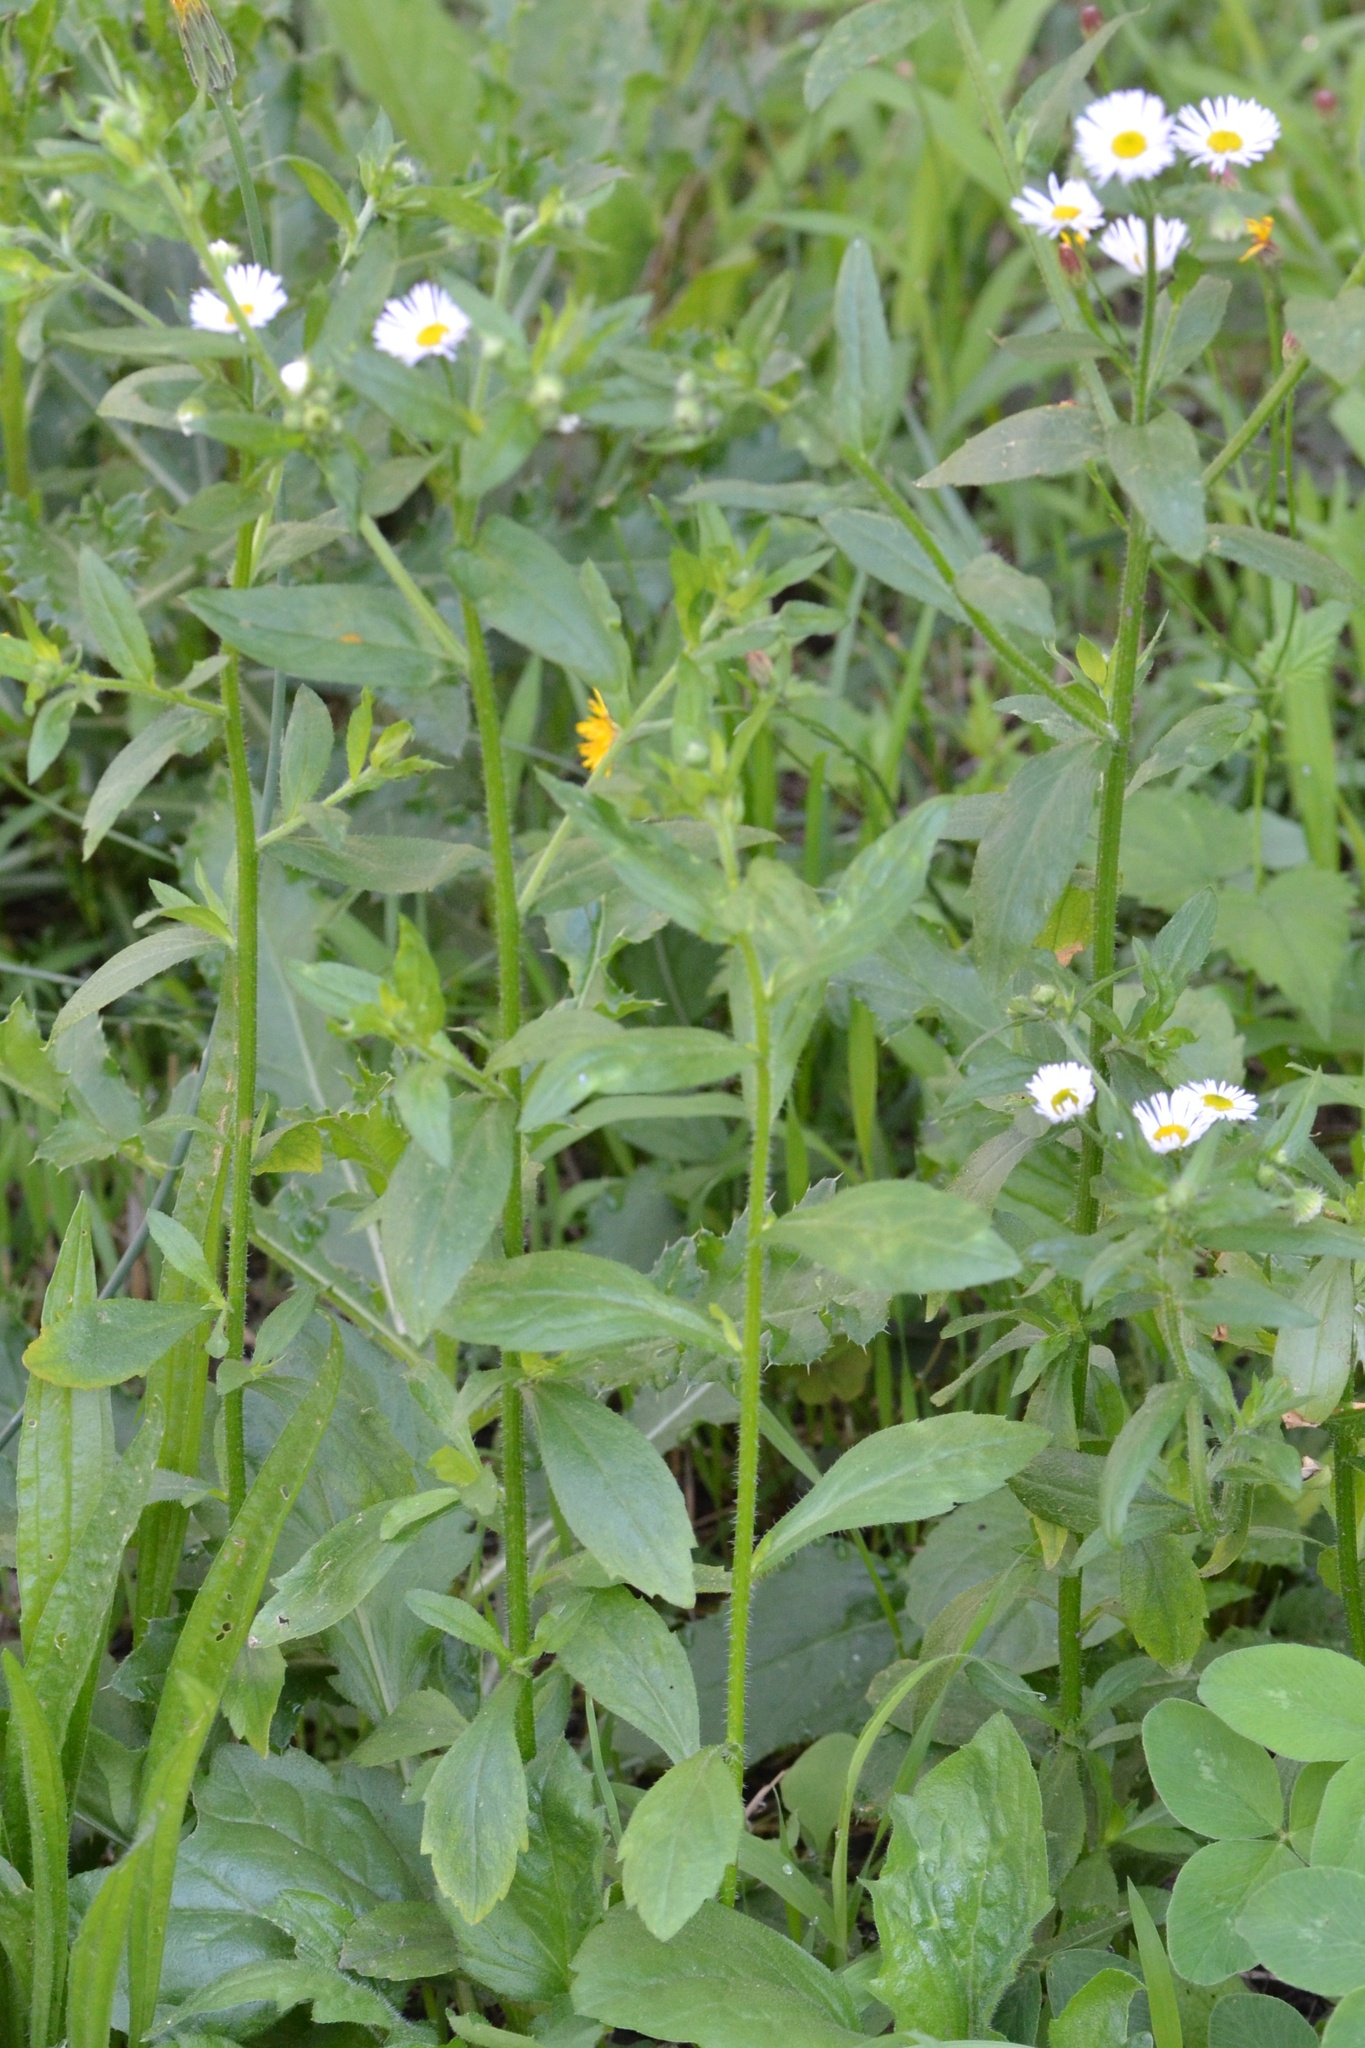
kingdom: Plantae
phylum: Tracheophyta
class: Magnoliopsida
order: Asterales
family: Asteraceae
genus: Erigeron
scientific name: Erigeron annuus
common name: Tall fleabane
